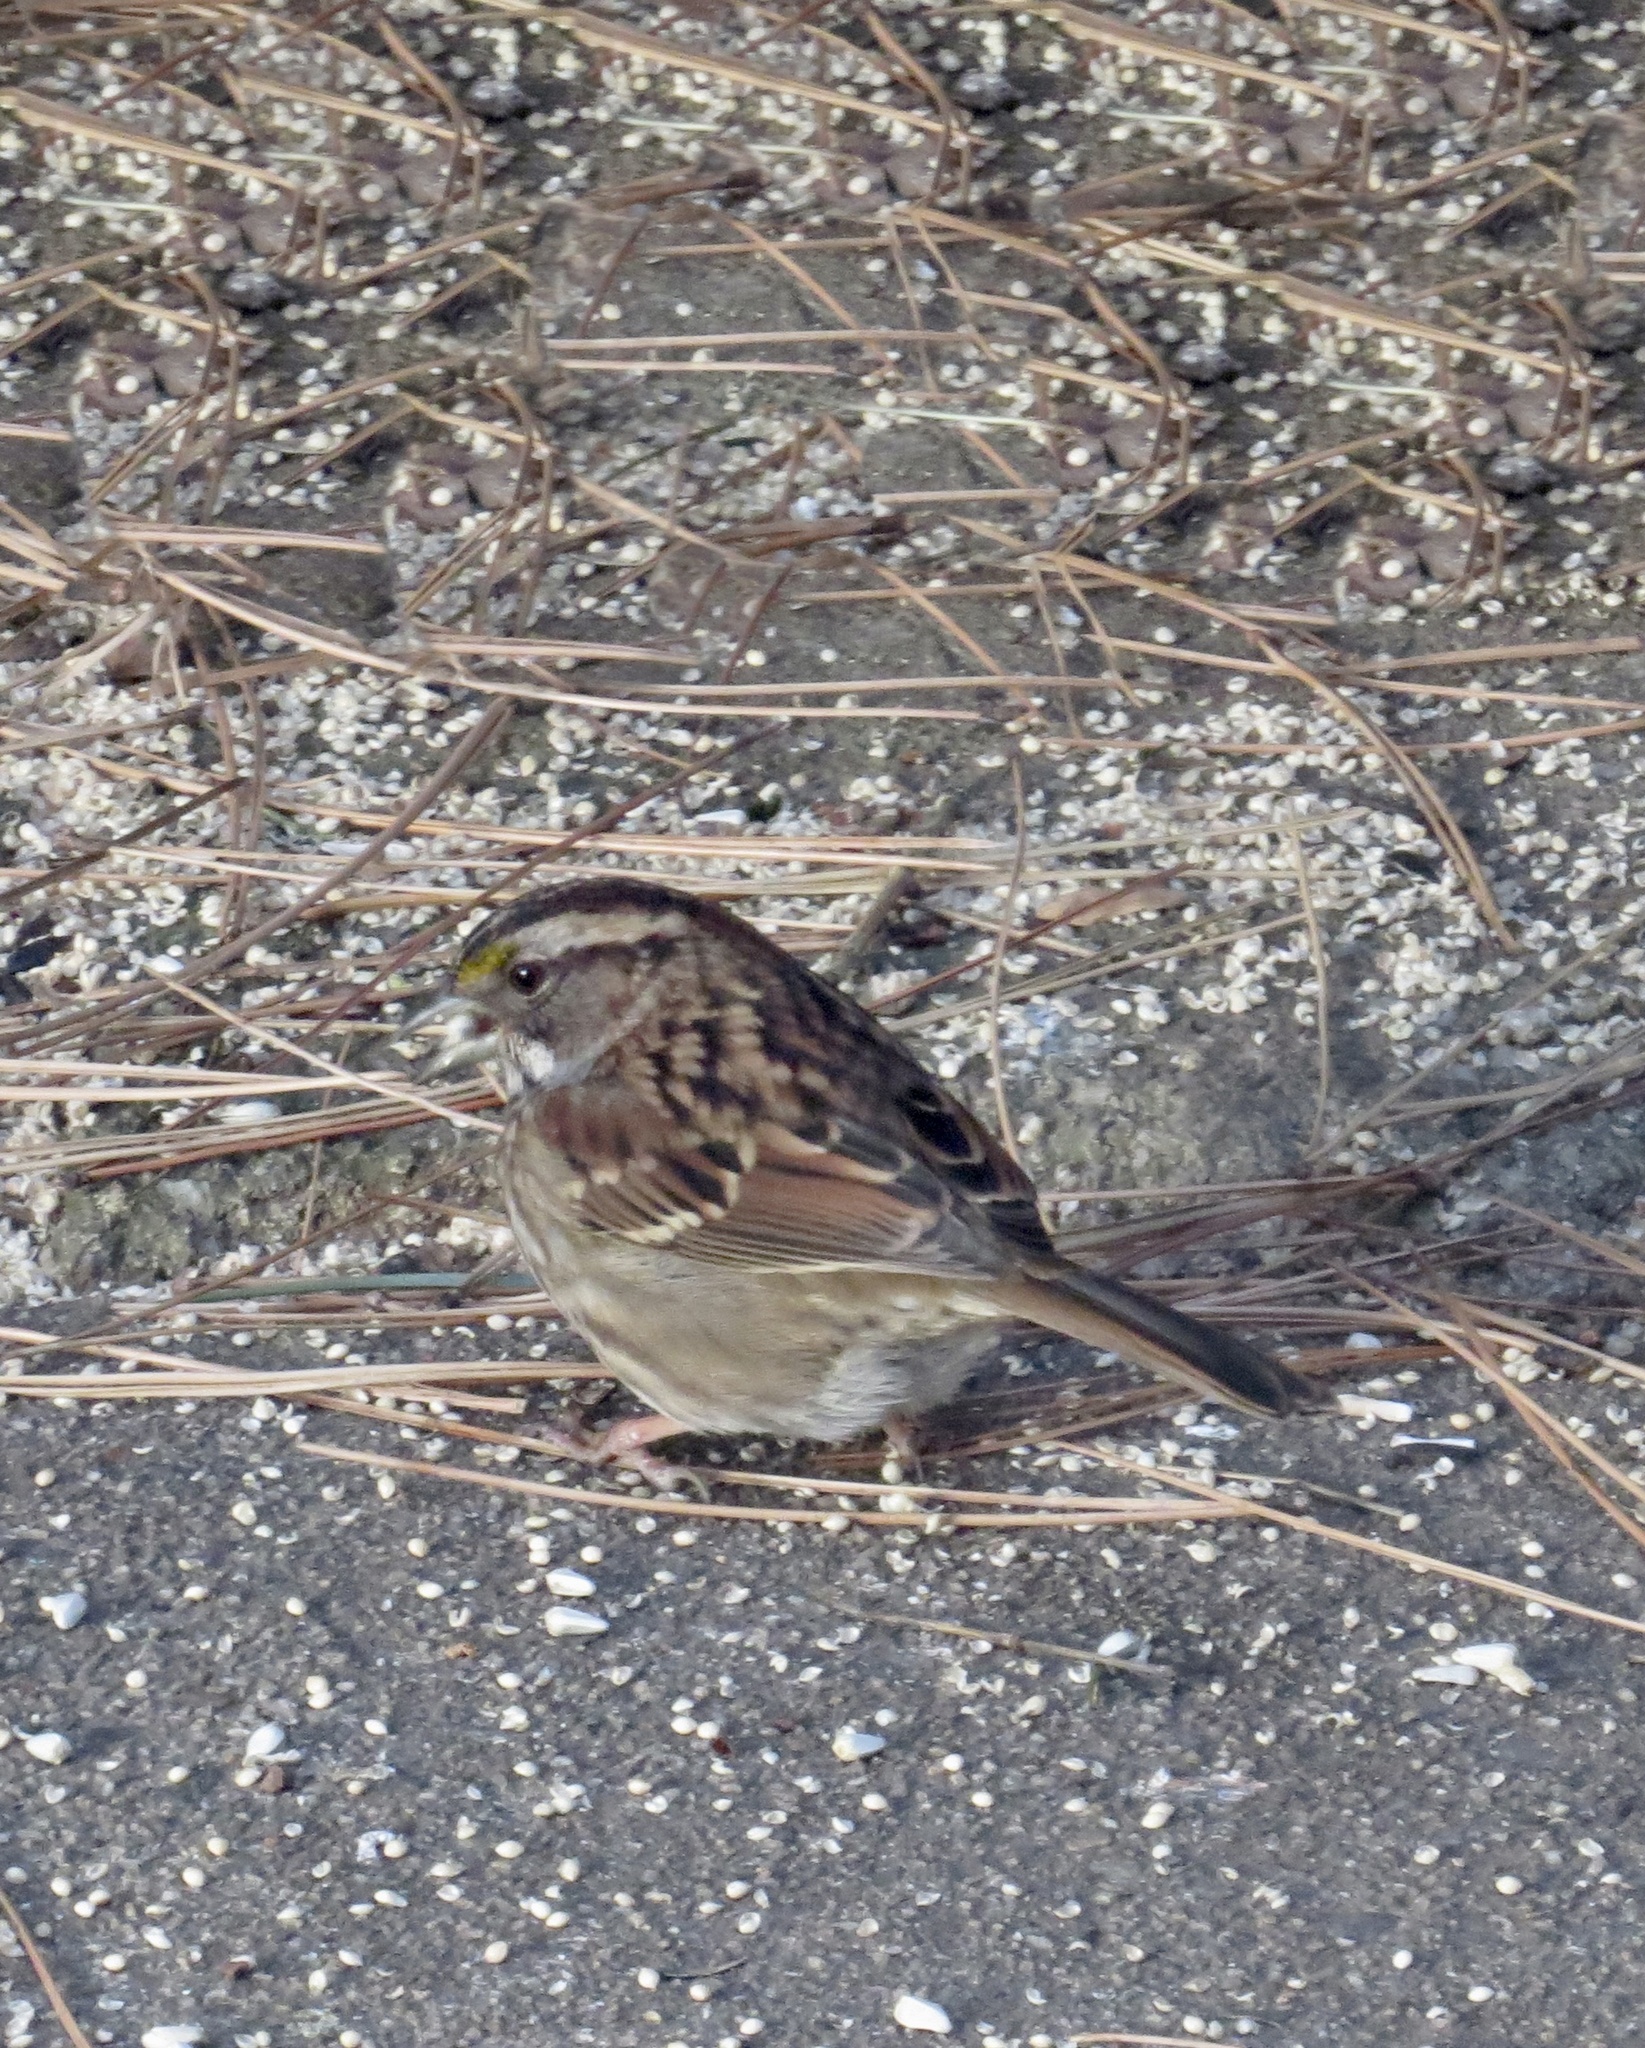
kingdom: Animalia
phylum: Chordata
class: Aves
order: Passeriformes
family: Passerellidae
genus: Zonotrichia
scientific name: Zonotrichia albicollis
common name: White-throated sparrow
